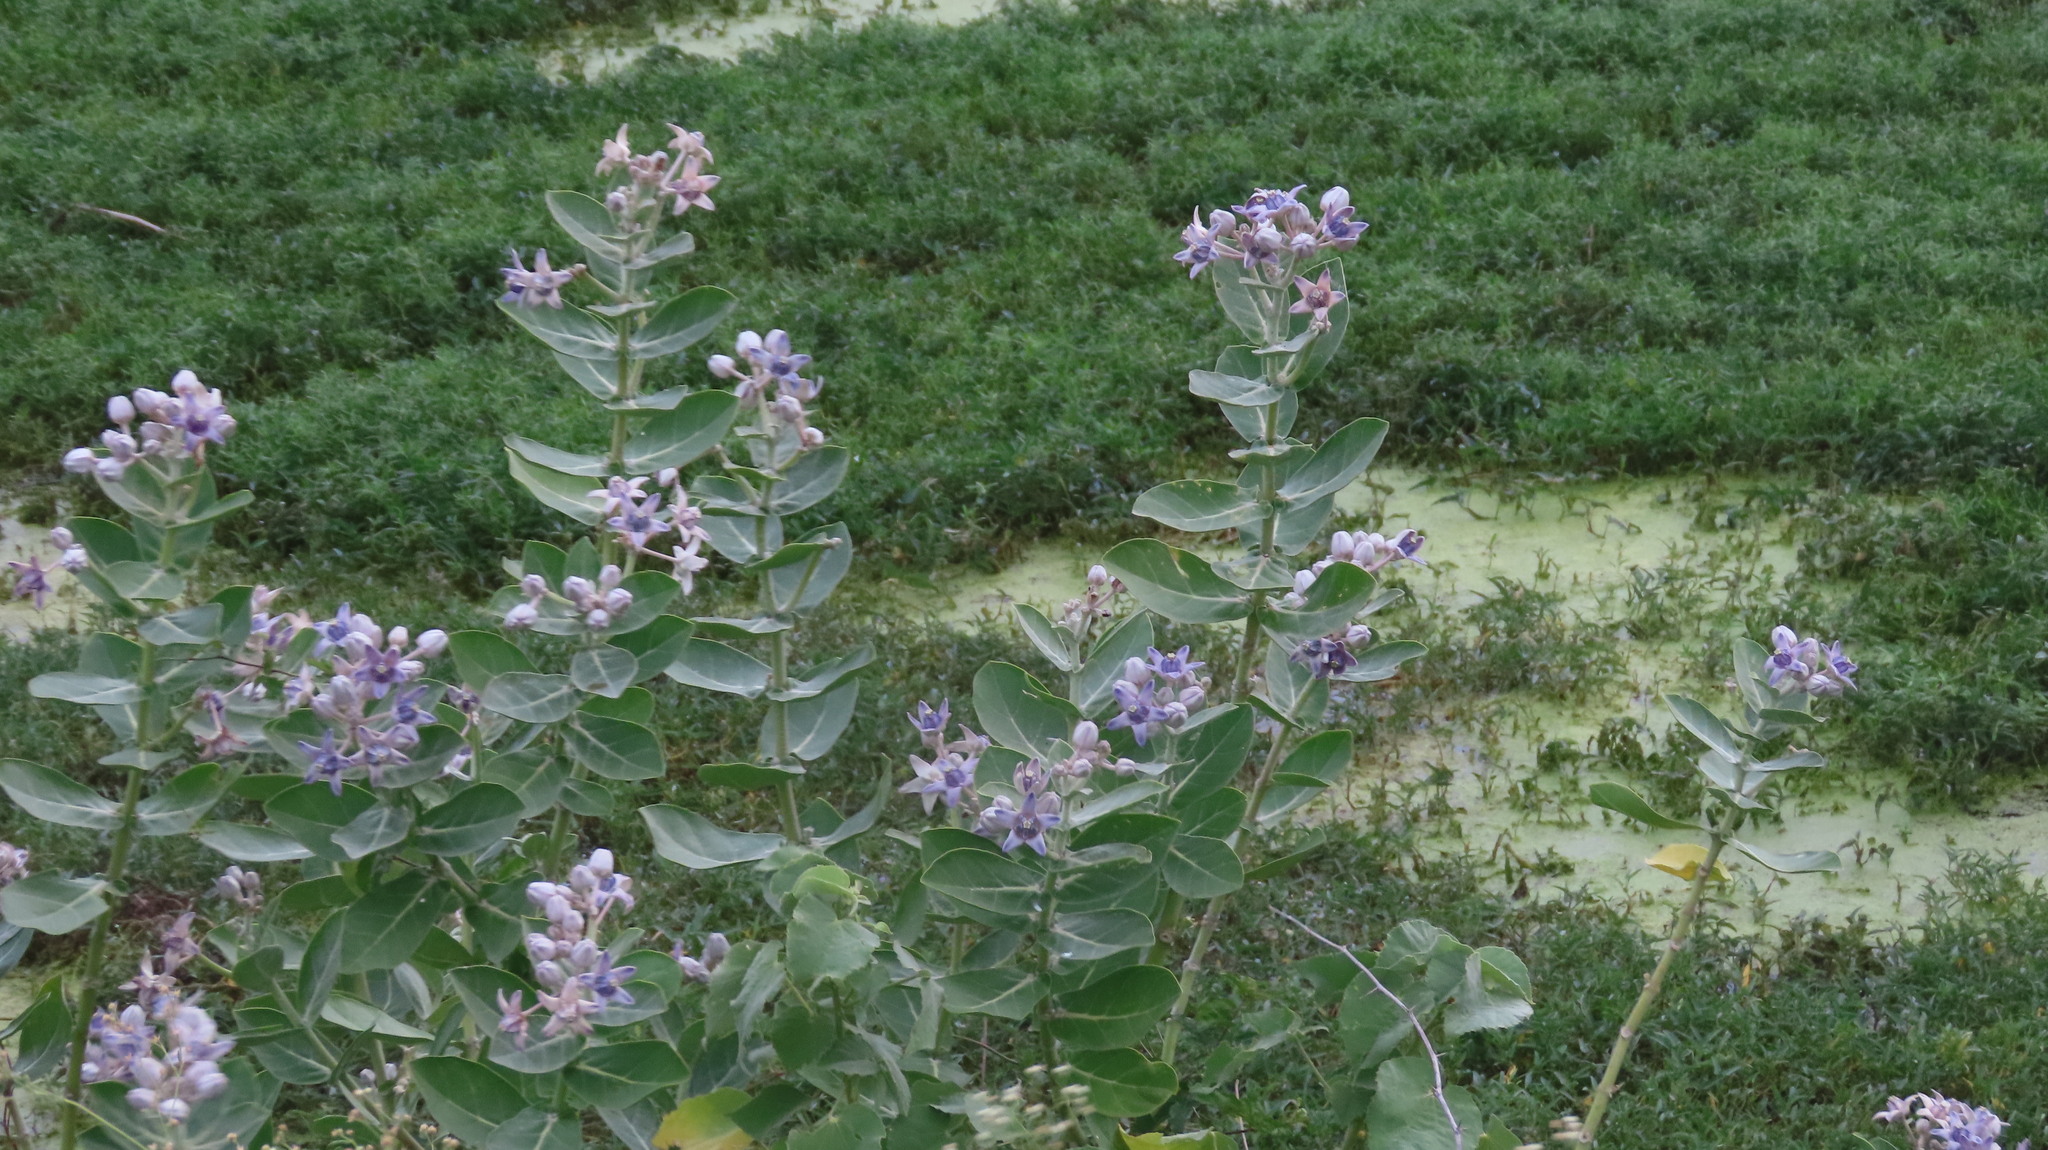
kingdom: Plantae
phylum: Tracheophyta
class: Magnoliopsida
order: Gentianales
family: Apocynaceae
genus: Calotropis
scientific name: Calotropis gigantea
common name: Crown flower
